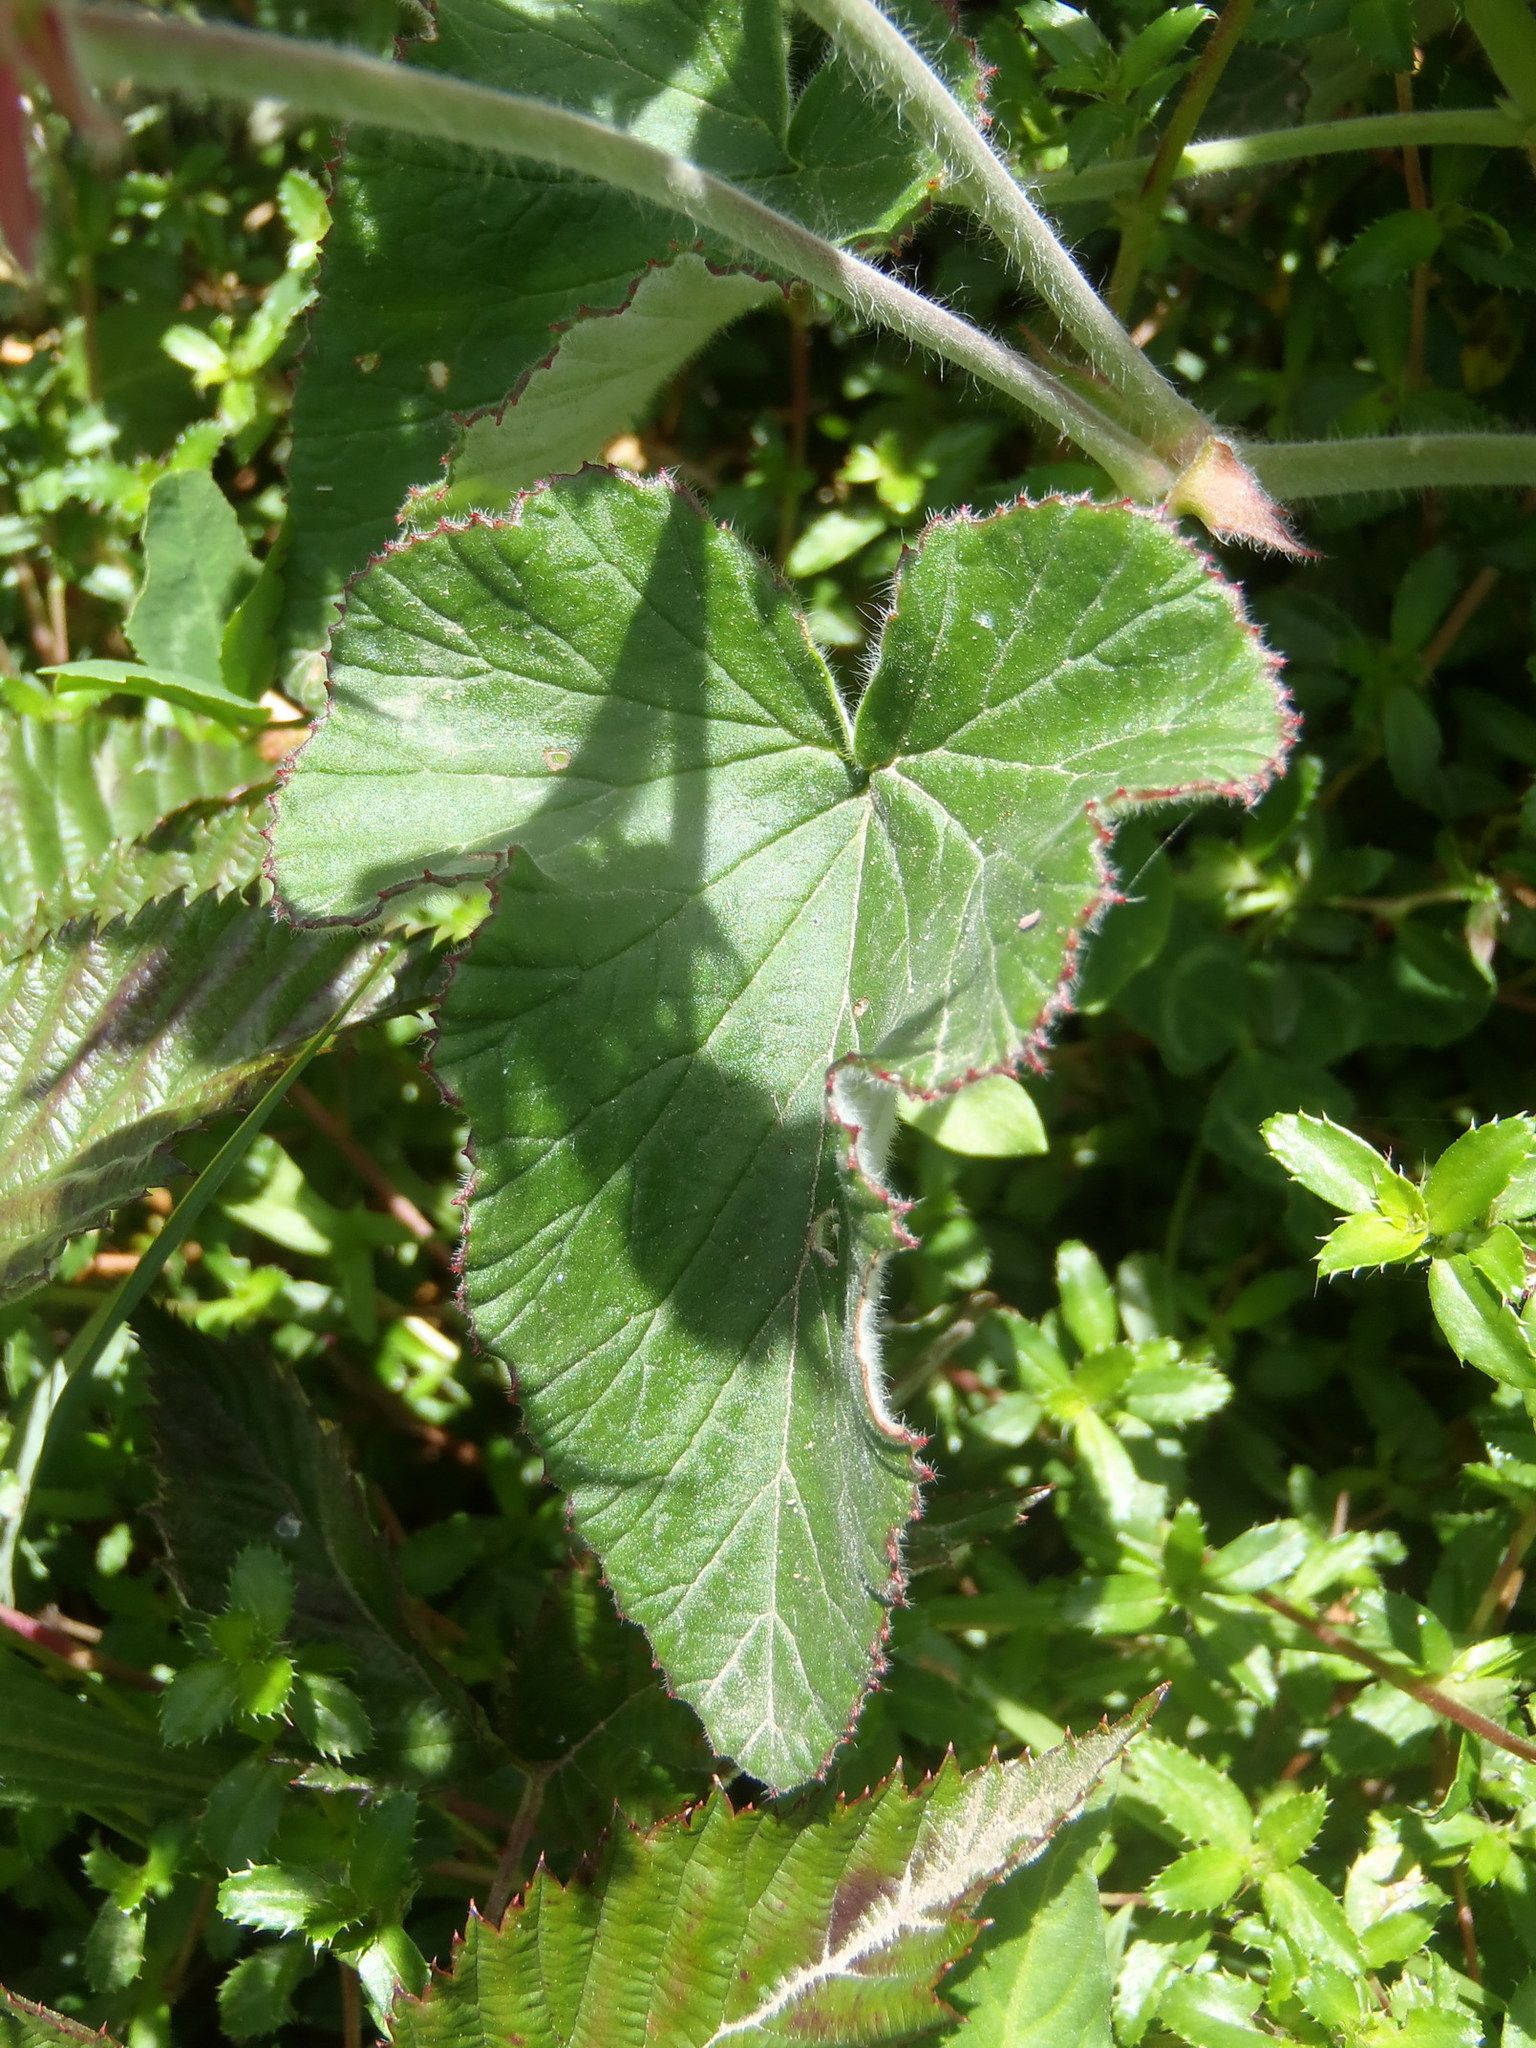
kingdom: Plantae
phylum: Tracheophyta
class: Magnoliopsida
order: Geraniales
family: Geraniaceae
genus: Pelargonium
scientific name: Pelargonium cordifolium
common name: Heart-leaf pelargonium
